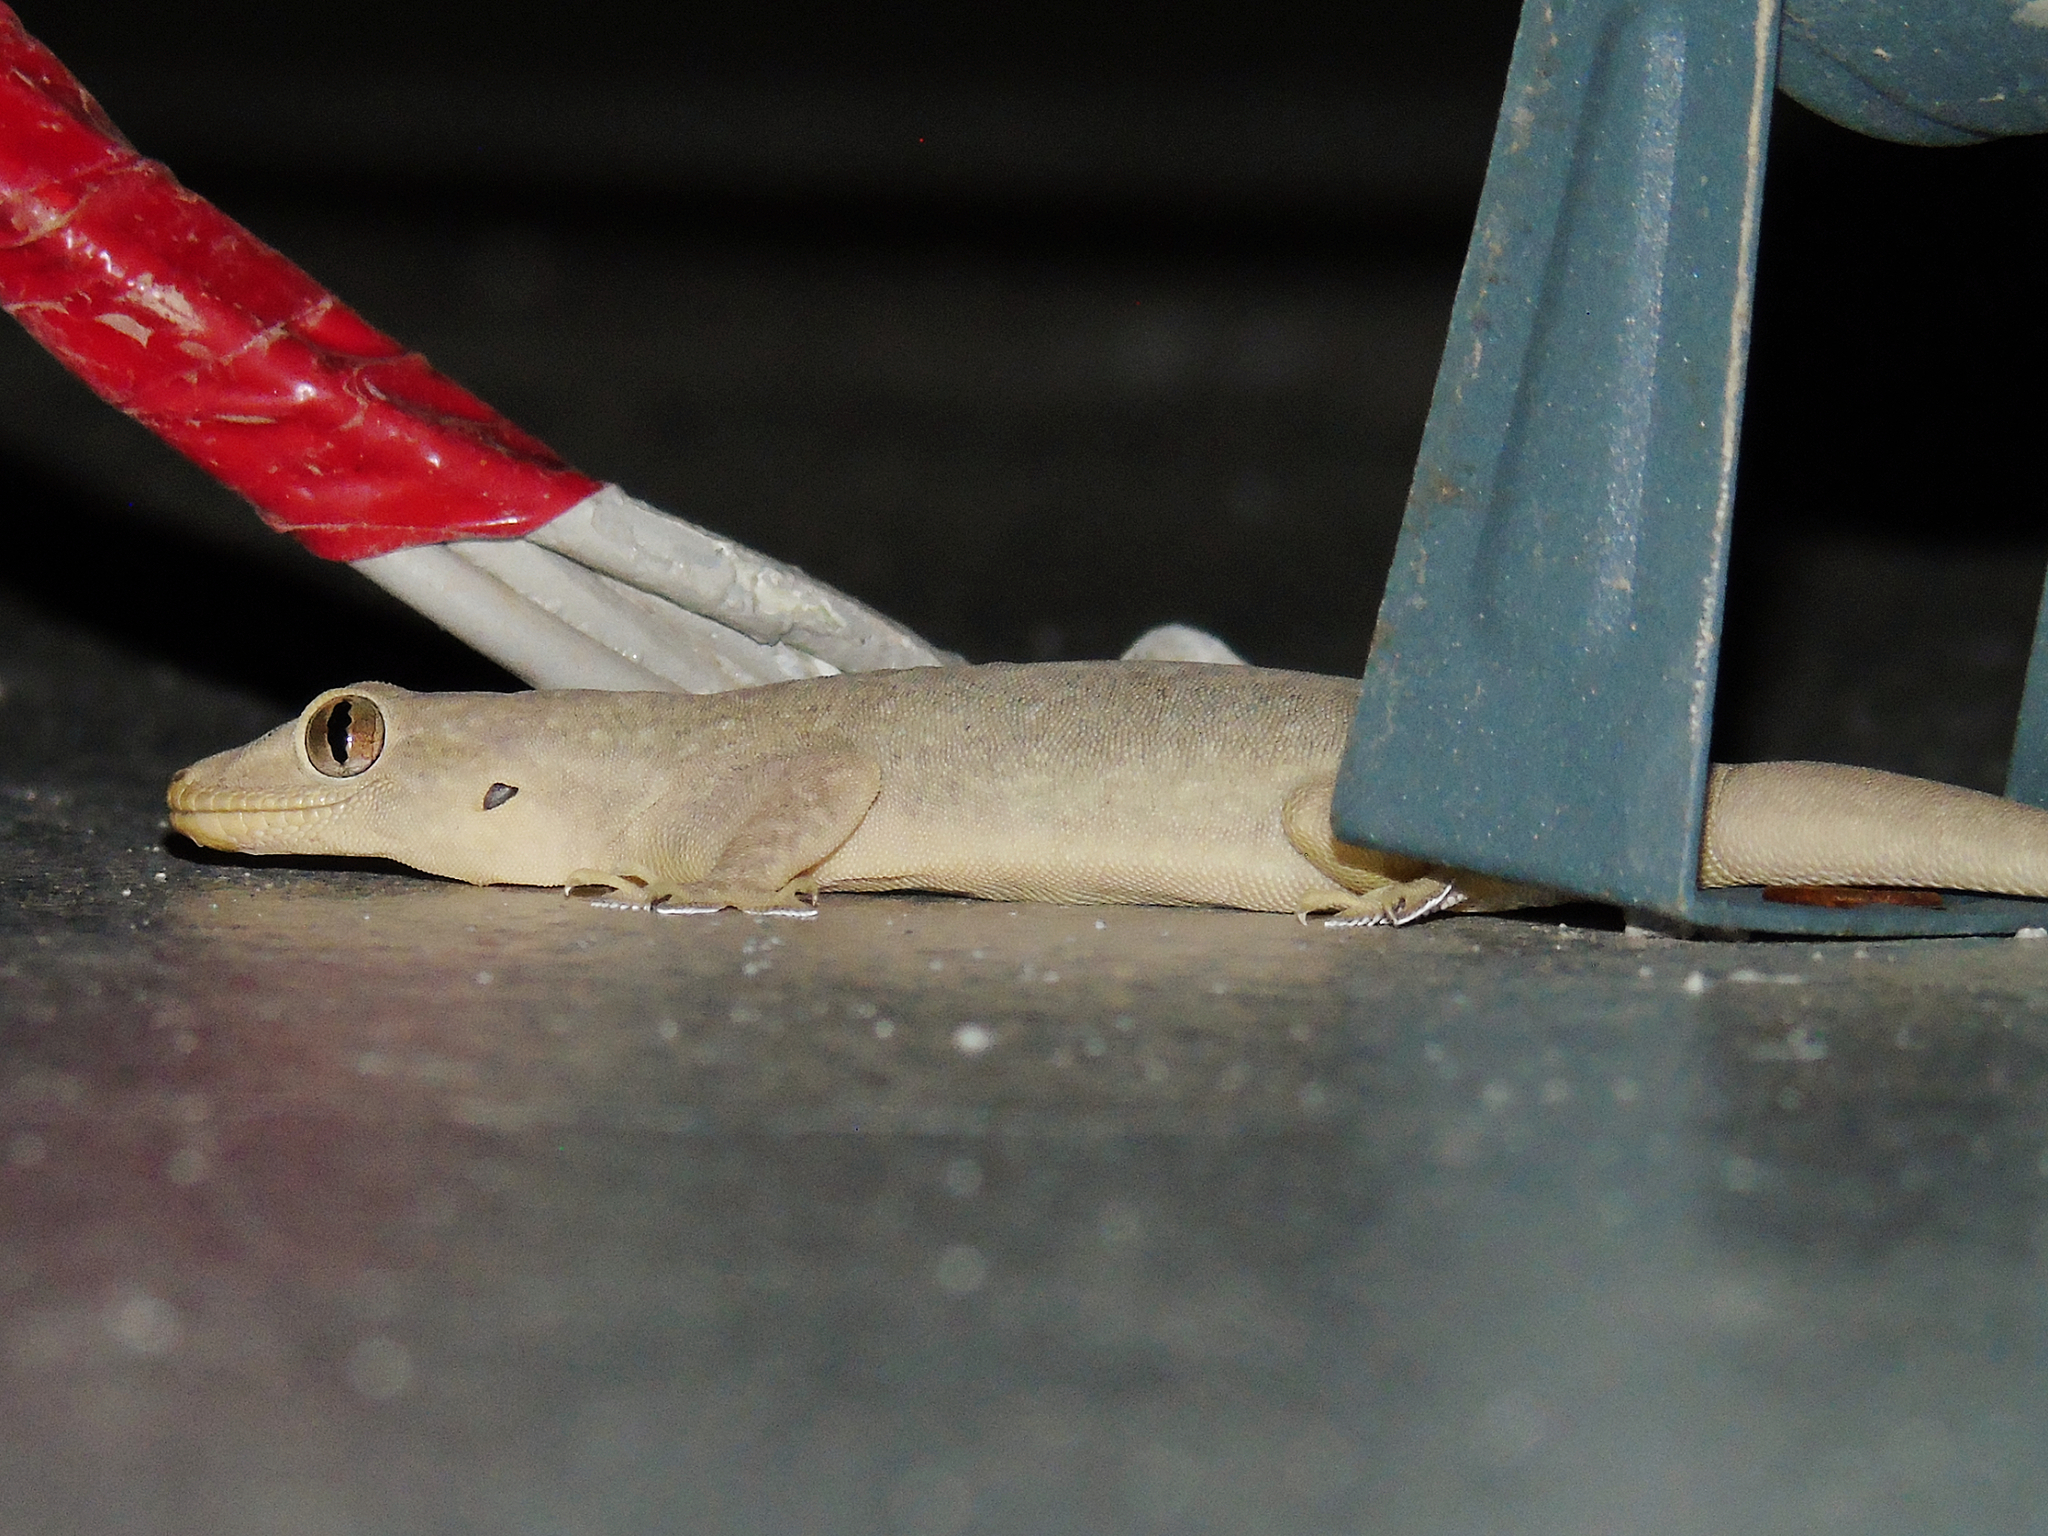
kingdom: Animalia
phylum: Chordata
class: Squamata
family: Gekkonidae
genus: Hemidactylus
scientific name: Hemidactylus flaviviridis
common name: Northern house gecko
